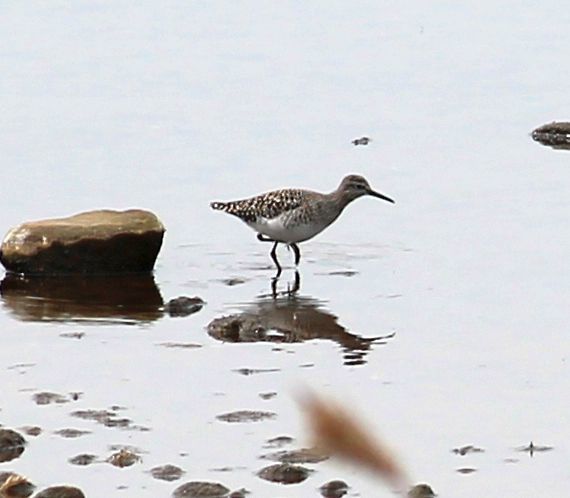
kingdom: Animalia
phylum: Chordata
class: Aves
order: Charadriiformes
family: Scolopacidae
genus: Tringa
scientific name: Tringa glareola
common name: Wood sandpiper
